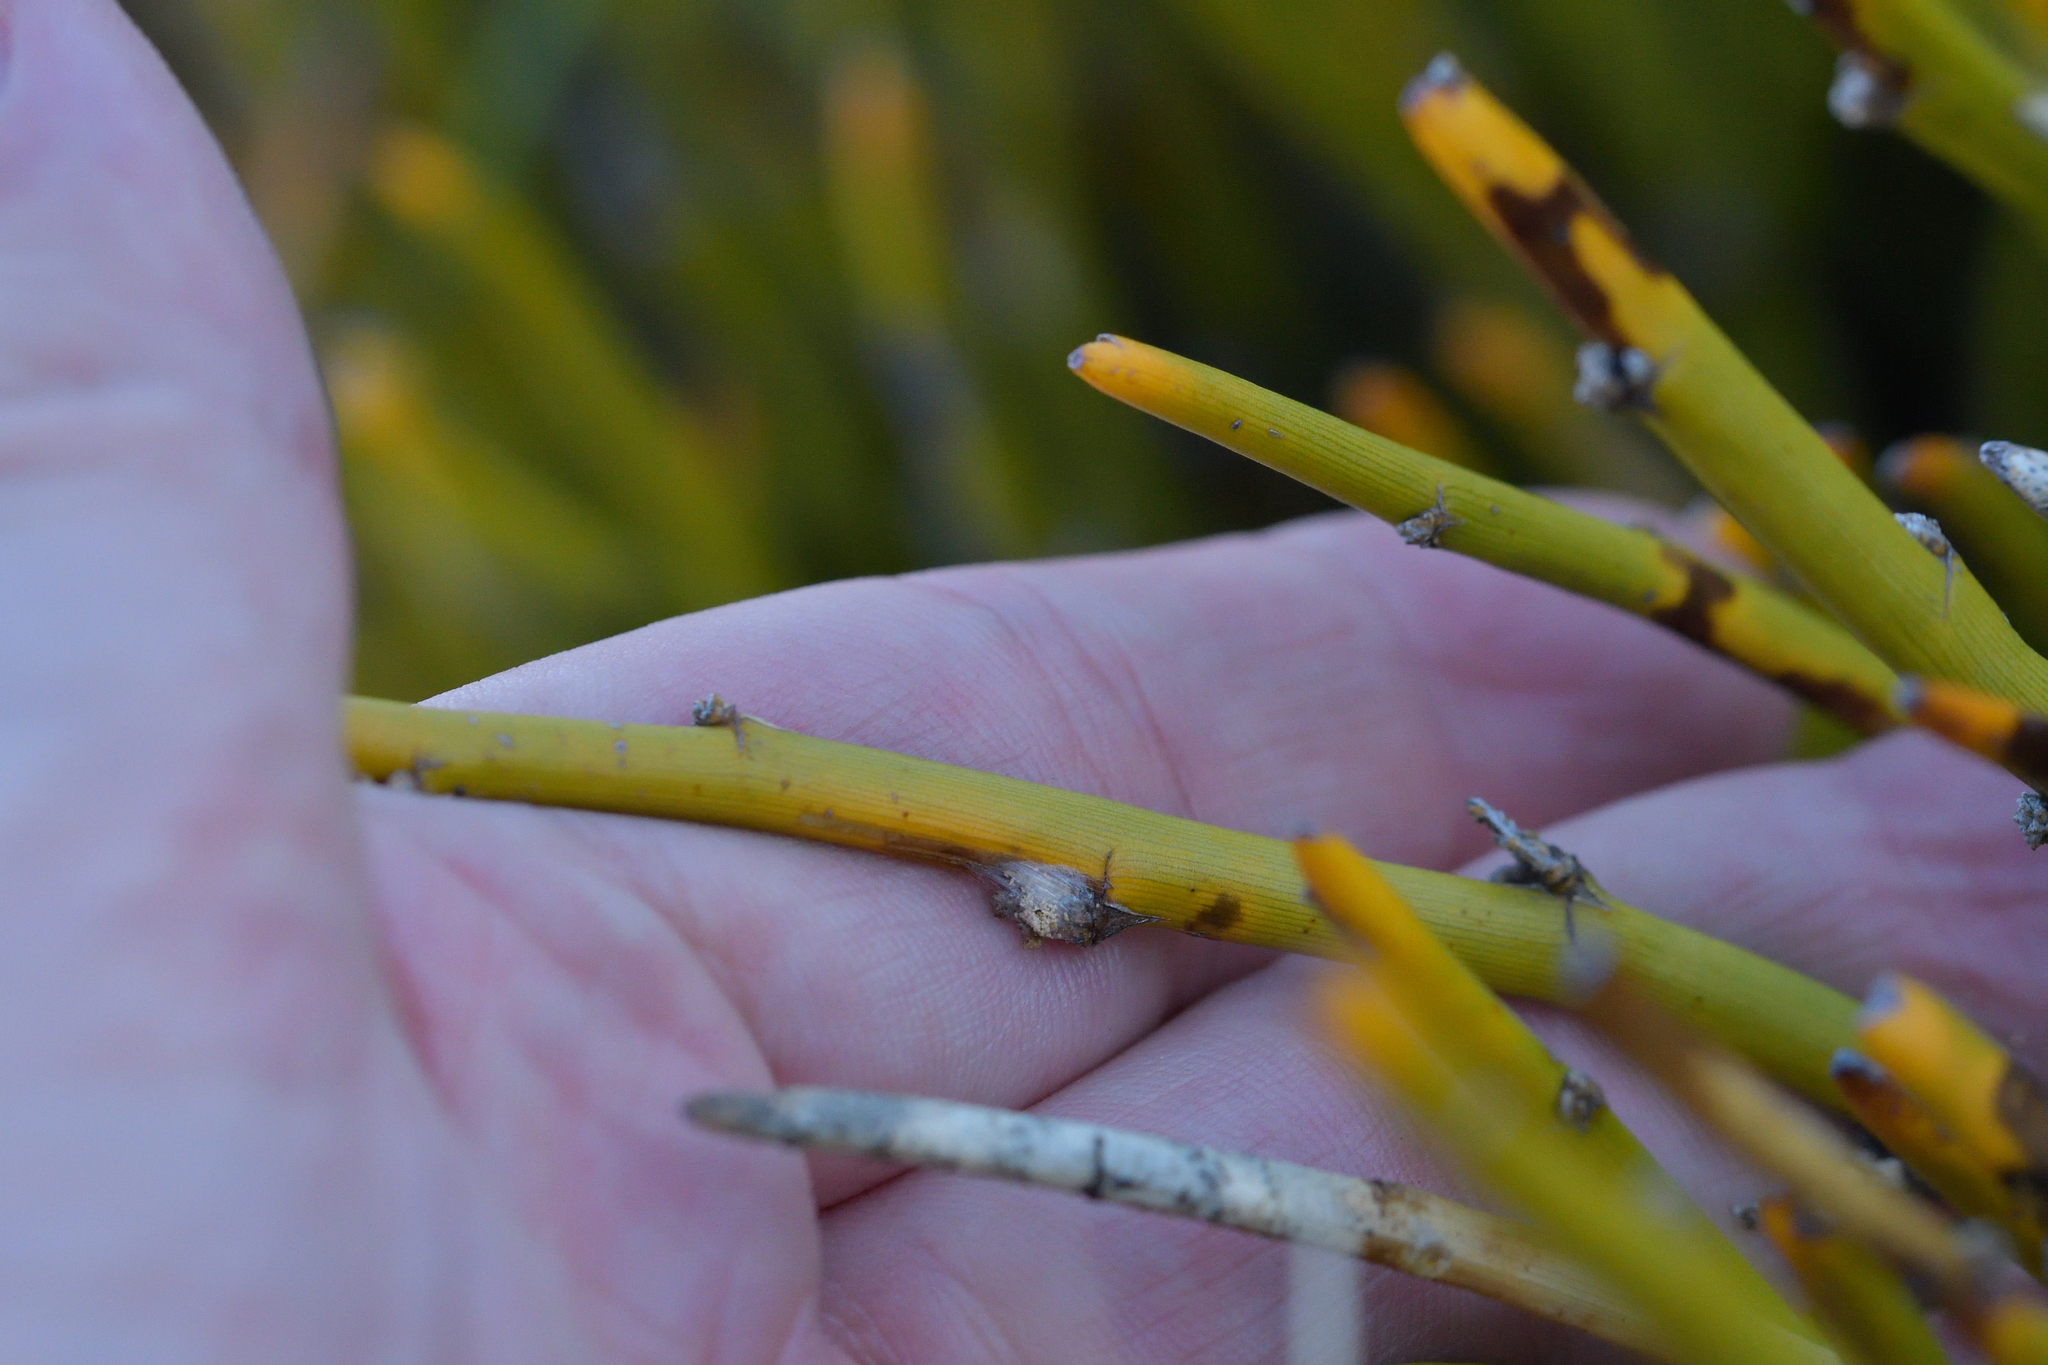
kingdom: Plantae
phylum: Tracheophyta
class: Magnoliopsida
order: Fabales
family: Fabaceae
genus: Carmichaelia
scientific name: Carmichaelia petriei
